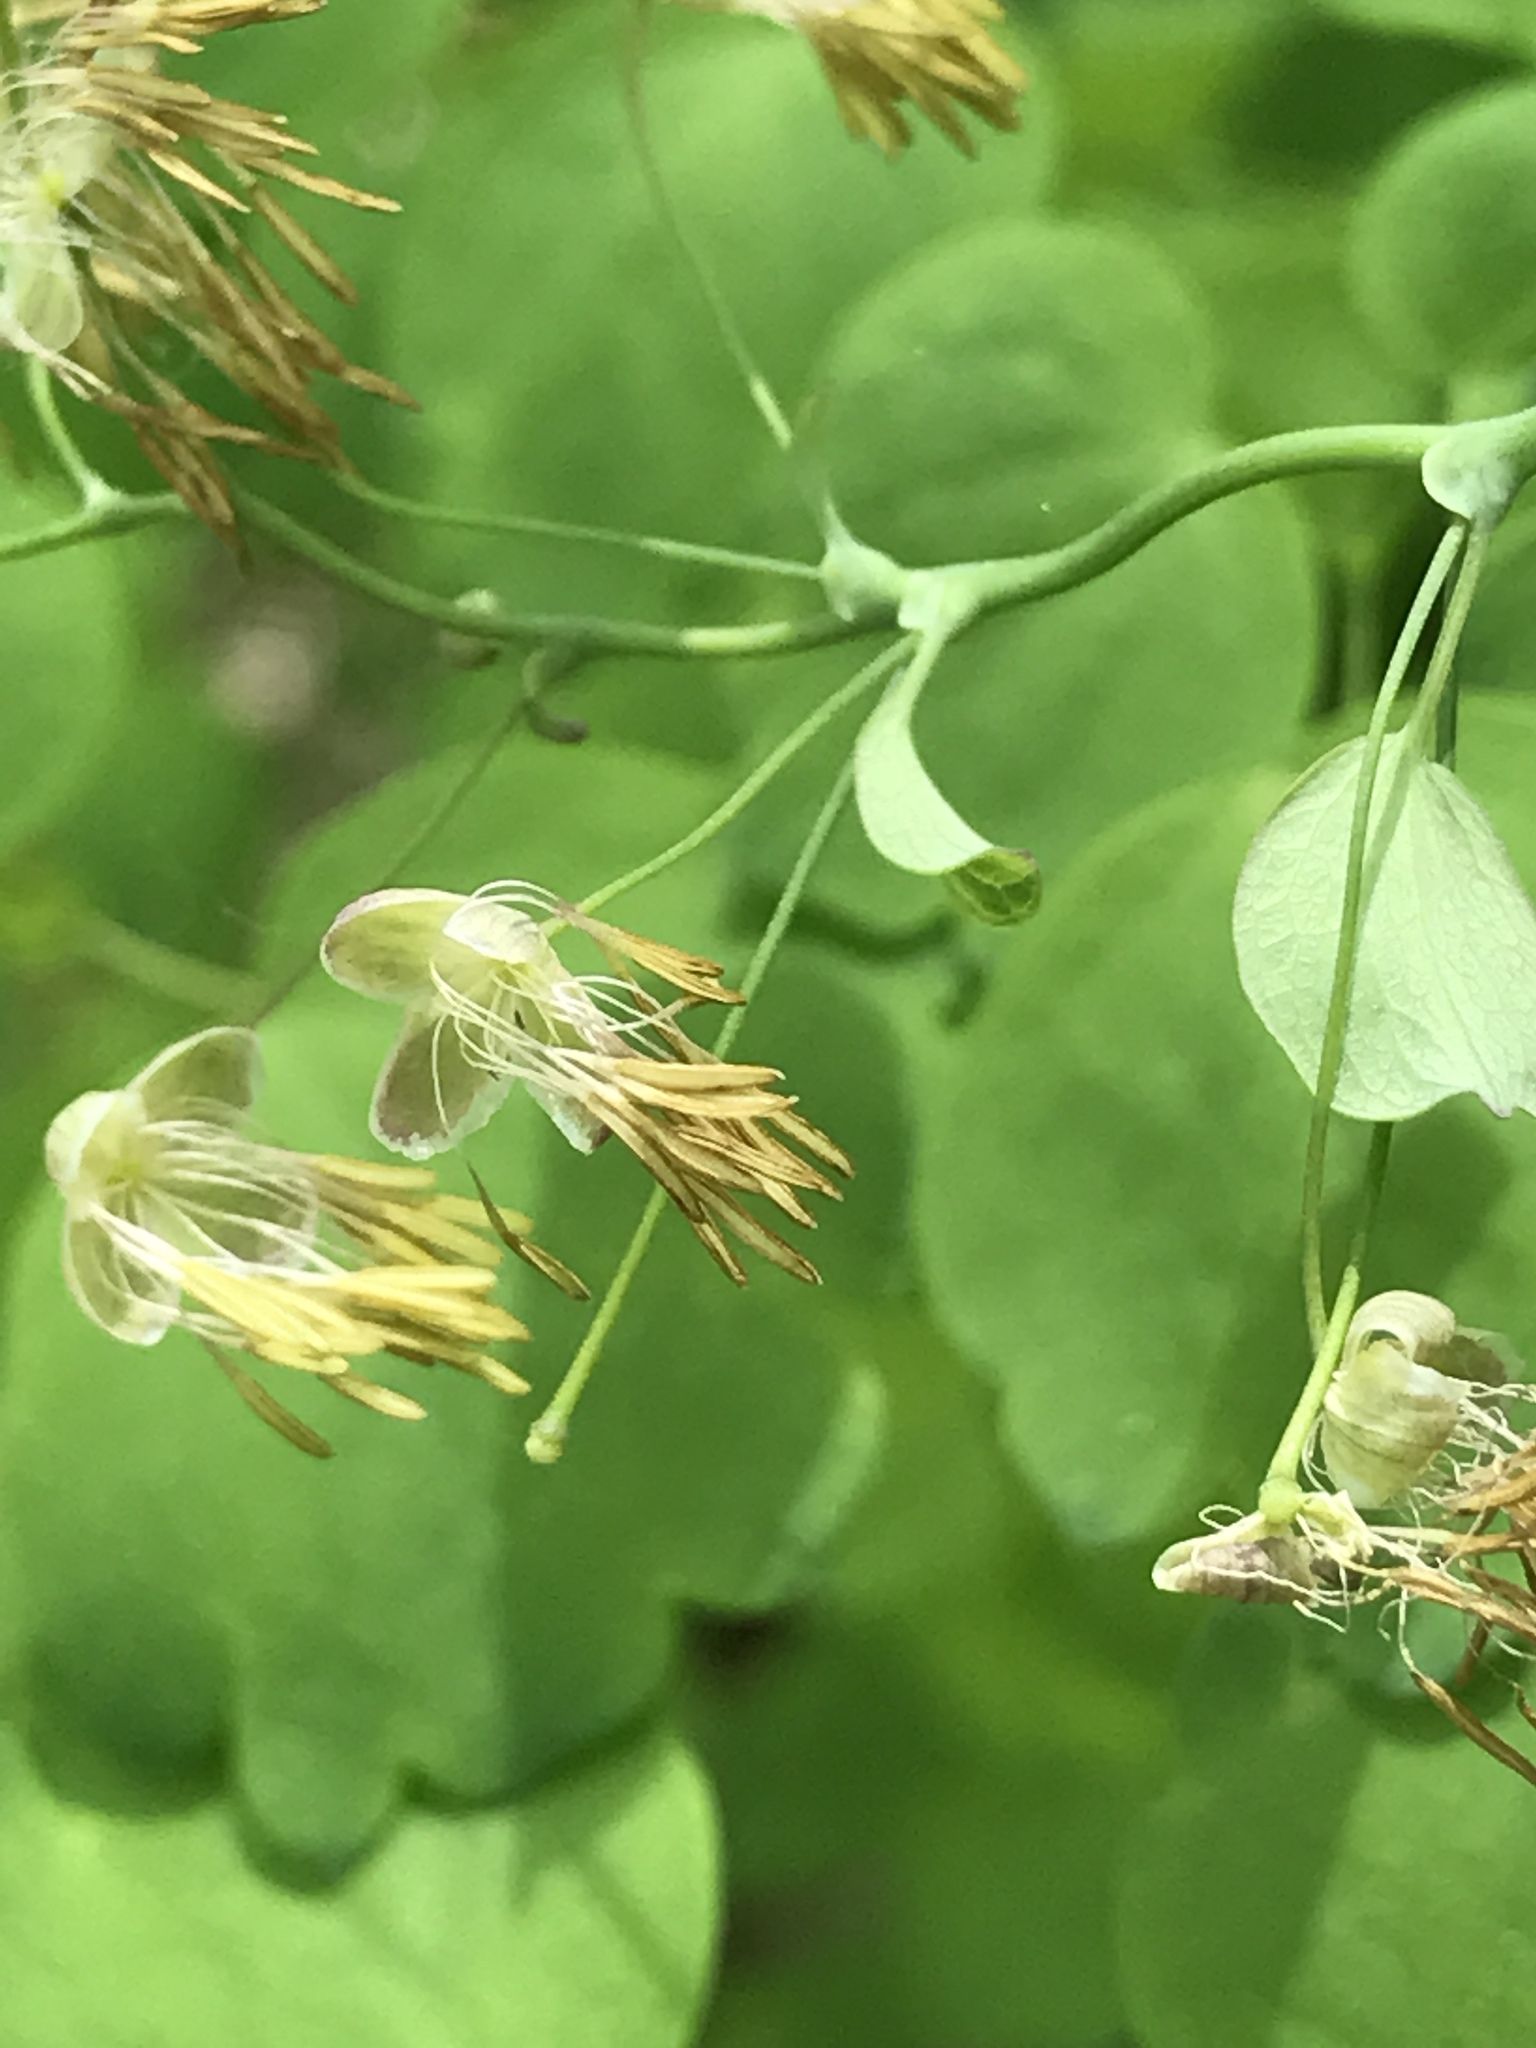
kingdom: Plantae
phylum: Tracheophyta
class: Magnoliopsida
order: Ranunculales
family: Ranunculaceae
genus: Thalictrum
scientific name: Thalictrum dioicum
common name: Early meadow-rue
